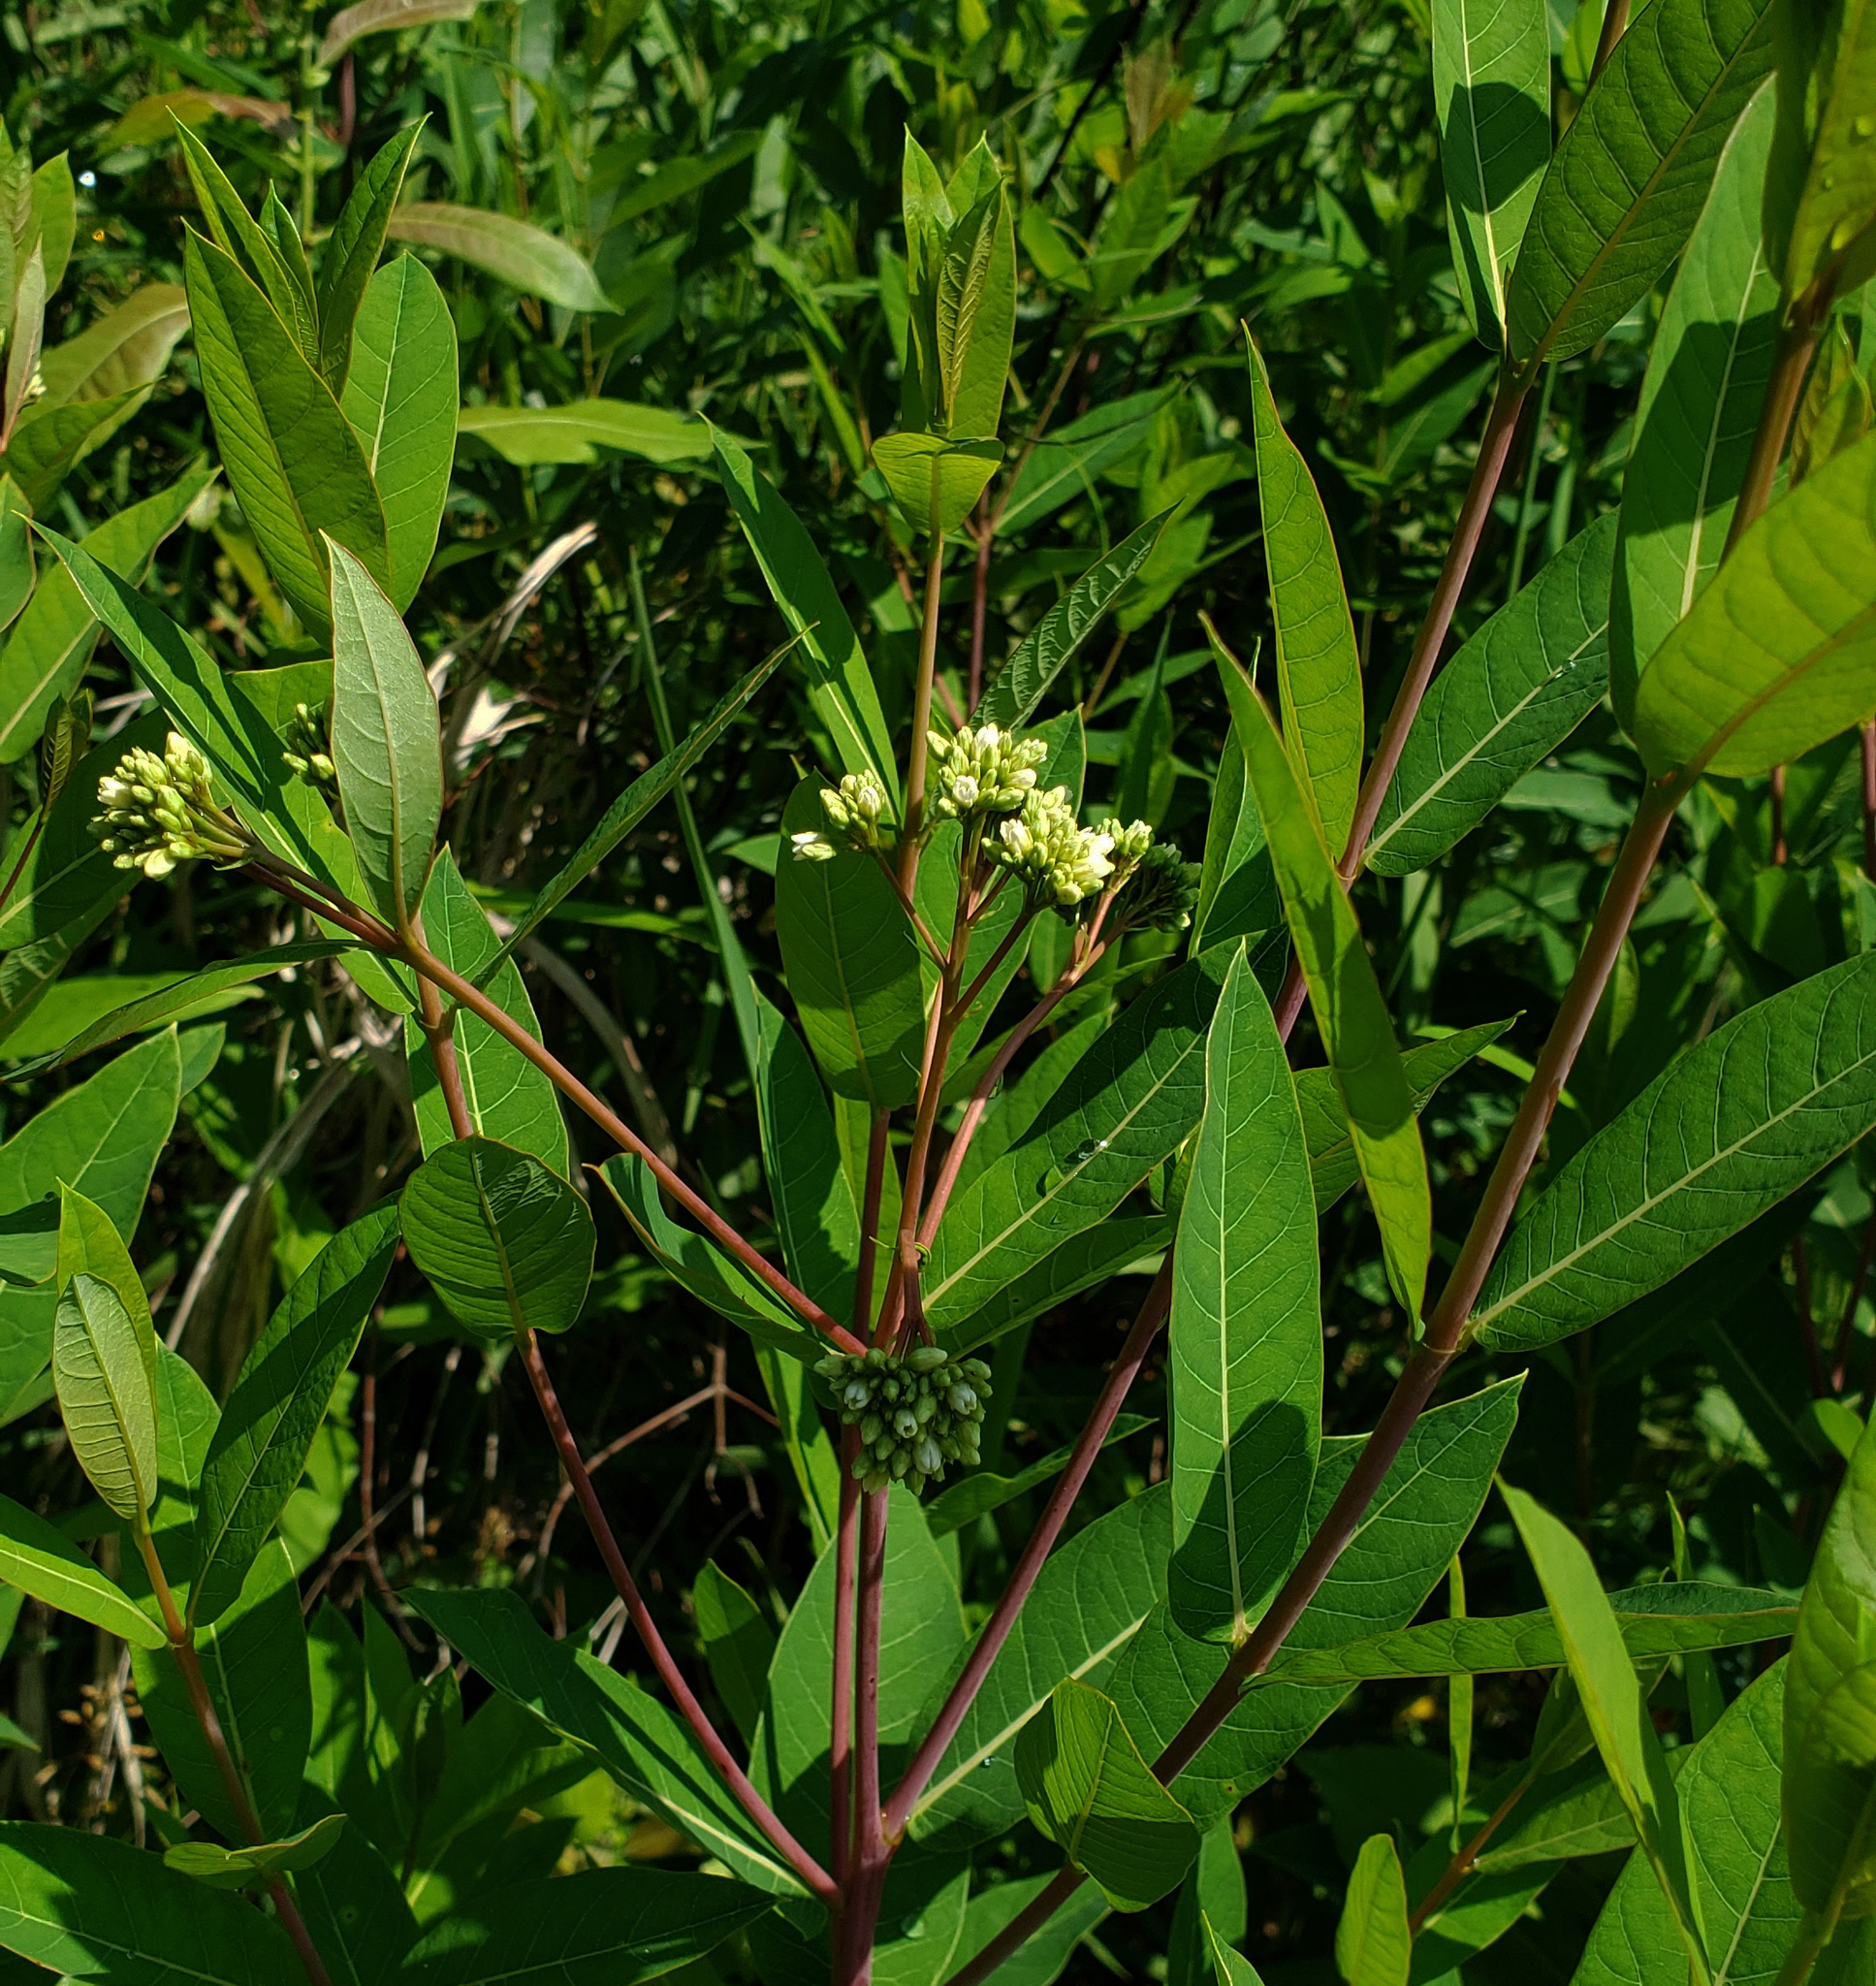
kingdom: Plantae
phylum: Tracheophyta
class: Magnoliopsida
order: Gentianales
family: Apocynaceae
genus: Apocynum
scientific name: Apocynum cannabinum
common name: Hemp dogbane
